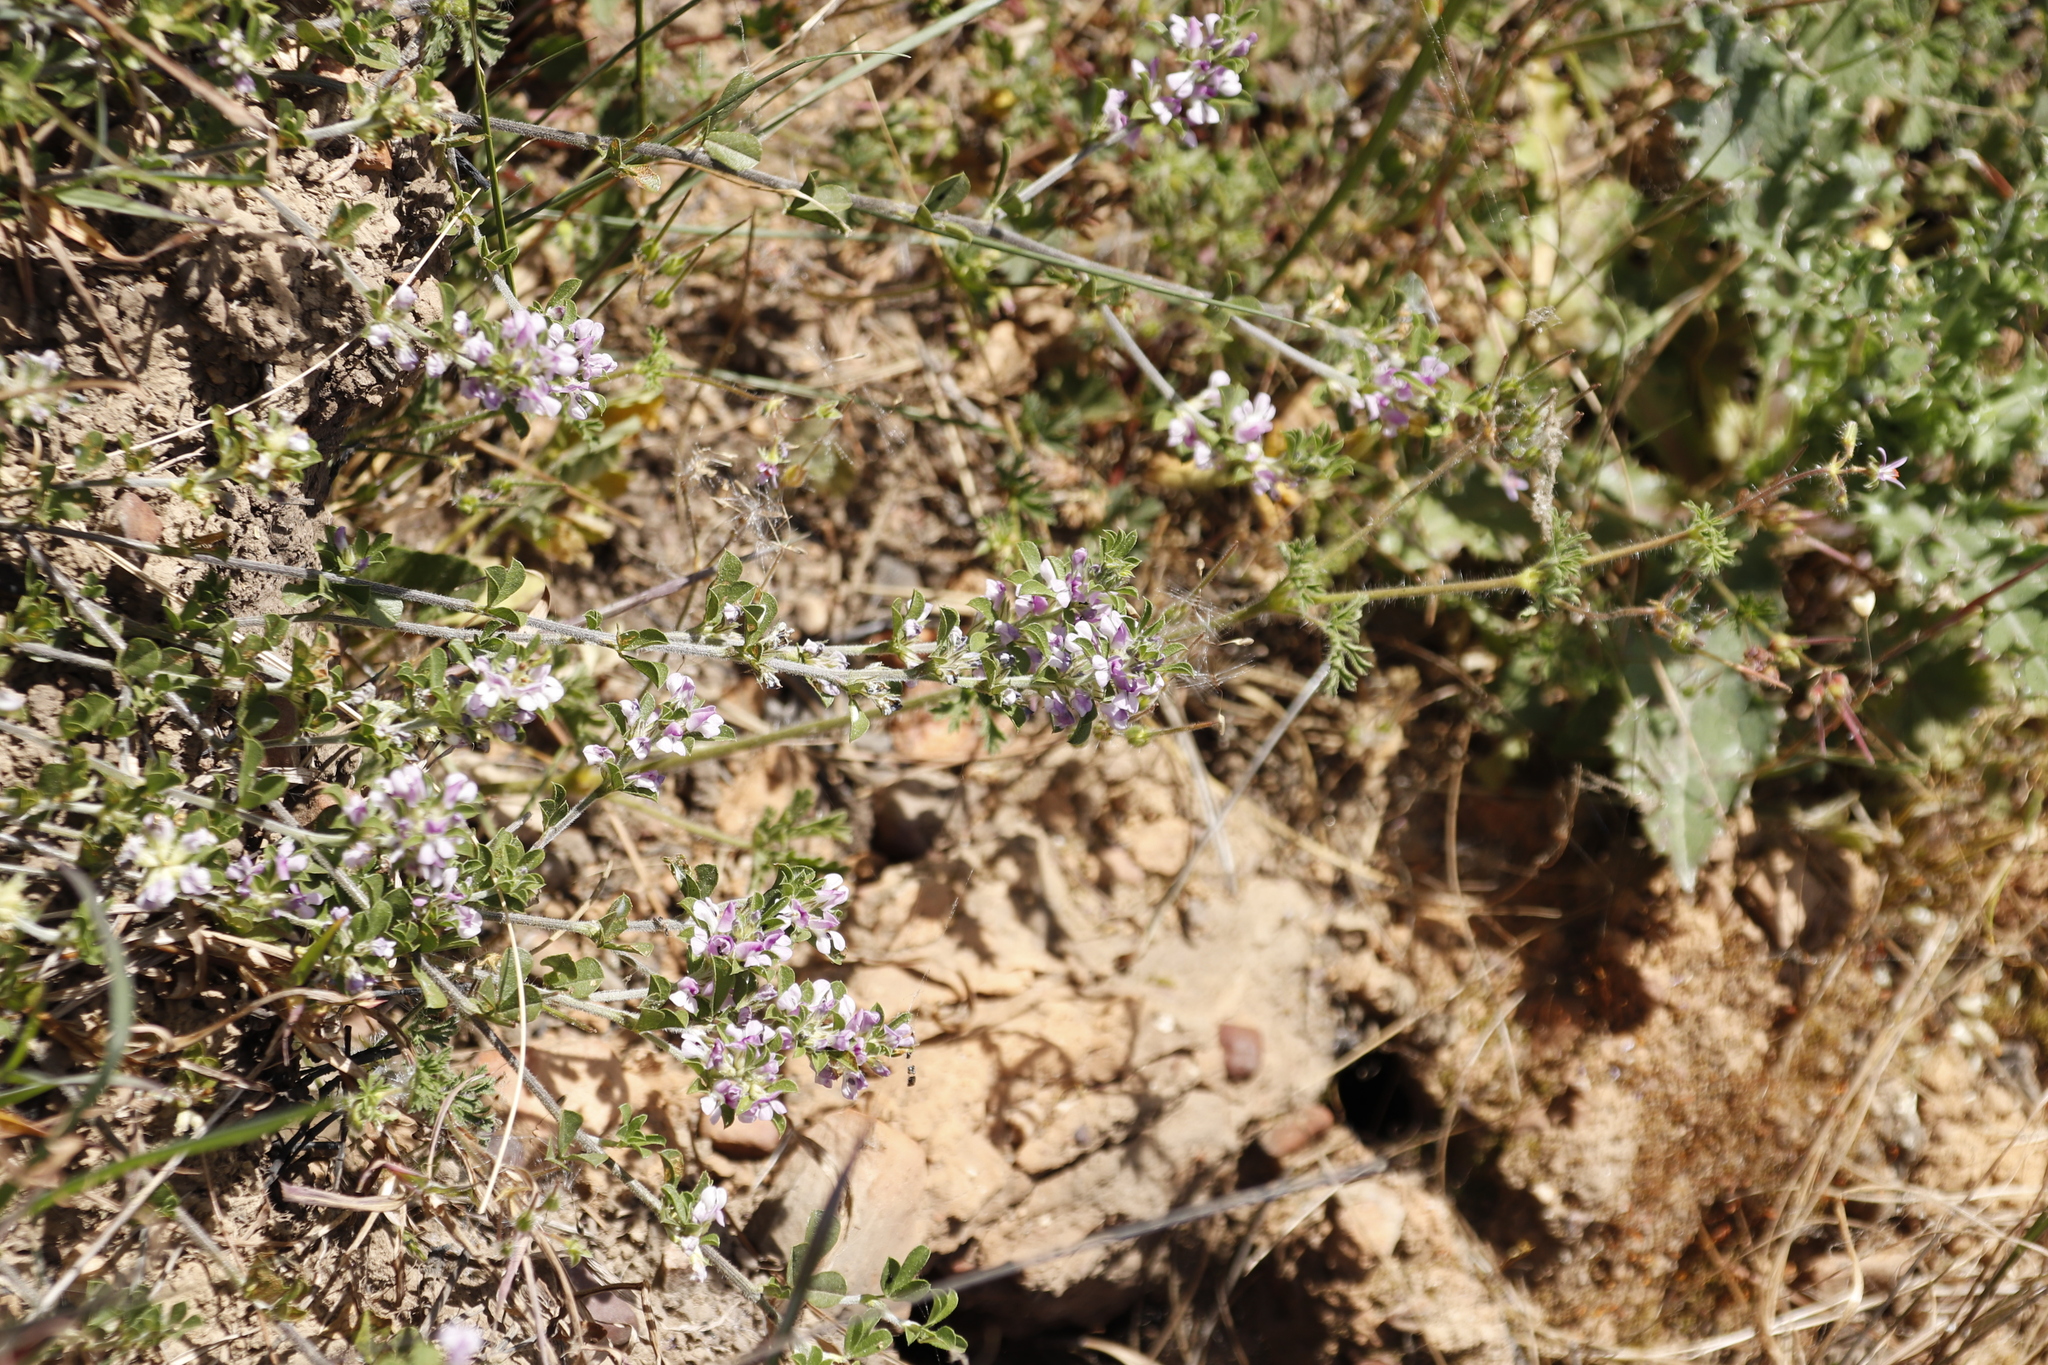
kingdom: Plantae
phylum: Tracheophyta
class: Magnoliopsida
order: Fabales
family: Fabaceae
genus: Psoralea
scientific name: Psoralea
